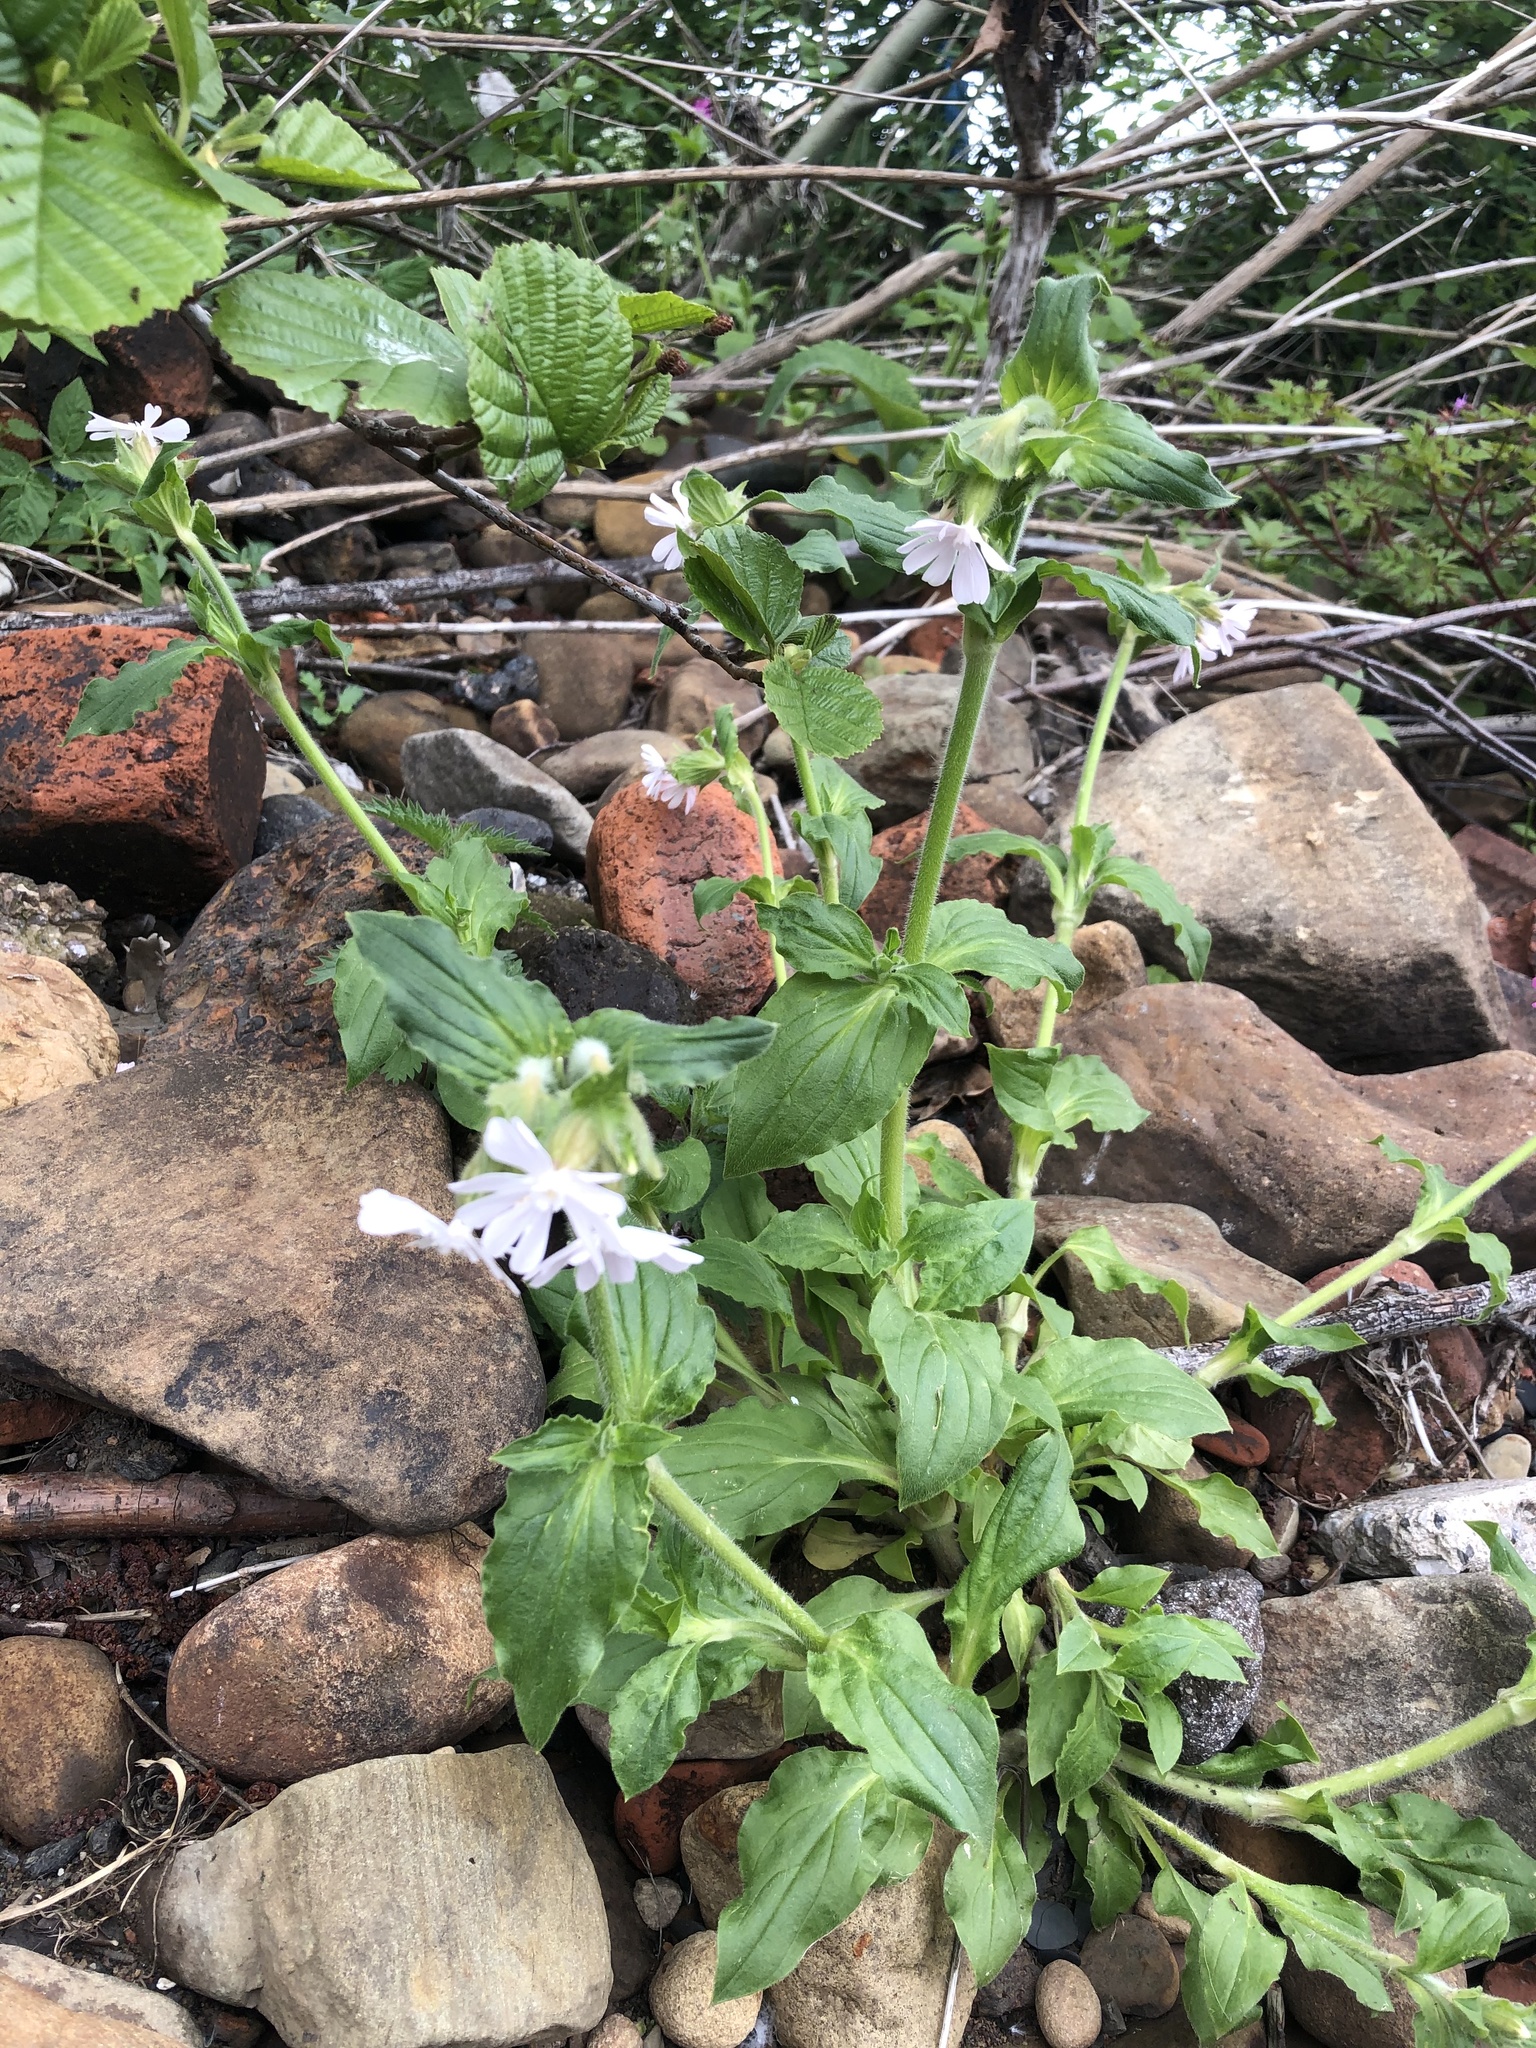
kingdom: Plantae
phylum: Tracheophyta
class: Magnoliopsida
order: Caryophyllales
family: Caryophyllaceae
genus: Silene
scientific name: Silene latifolia
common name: White campion
